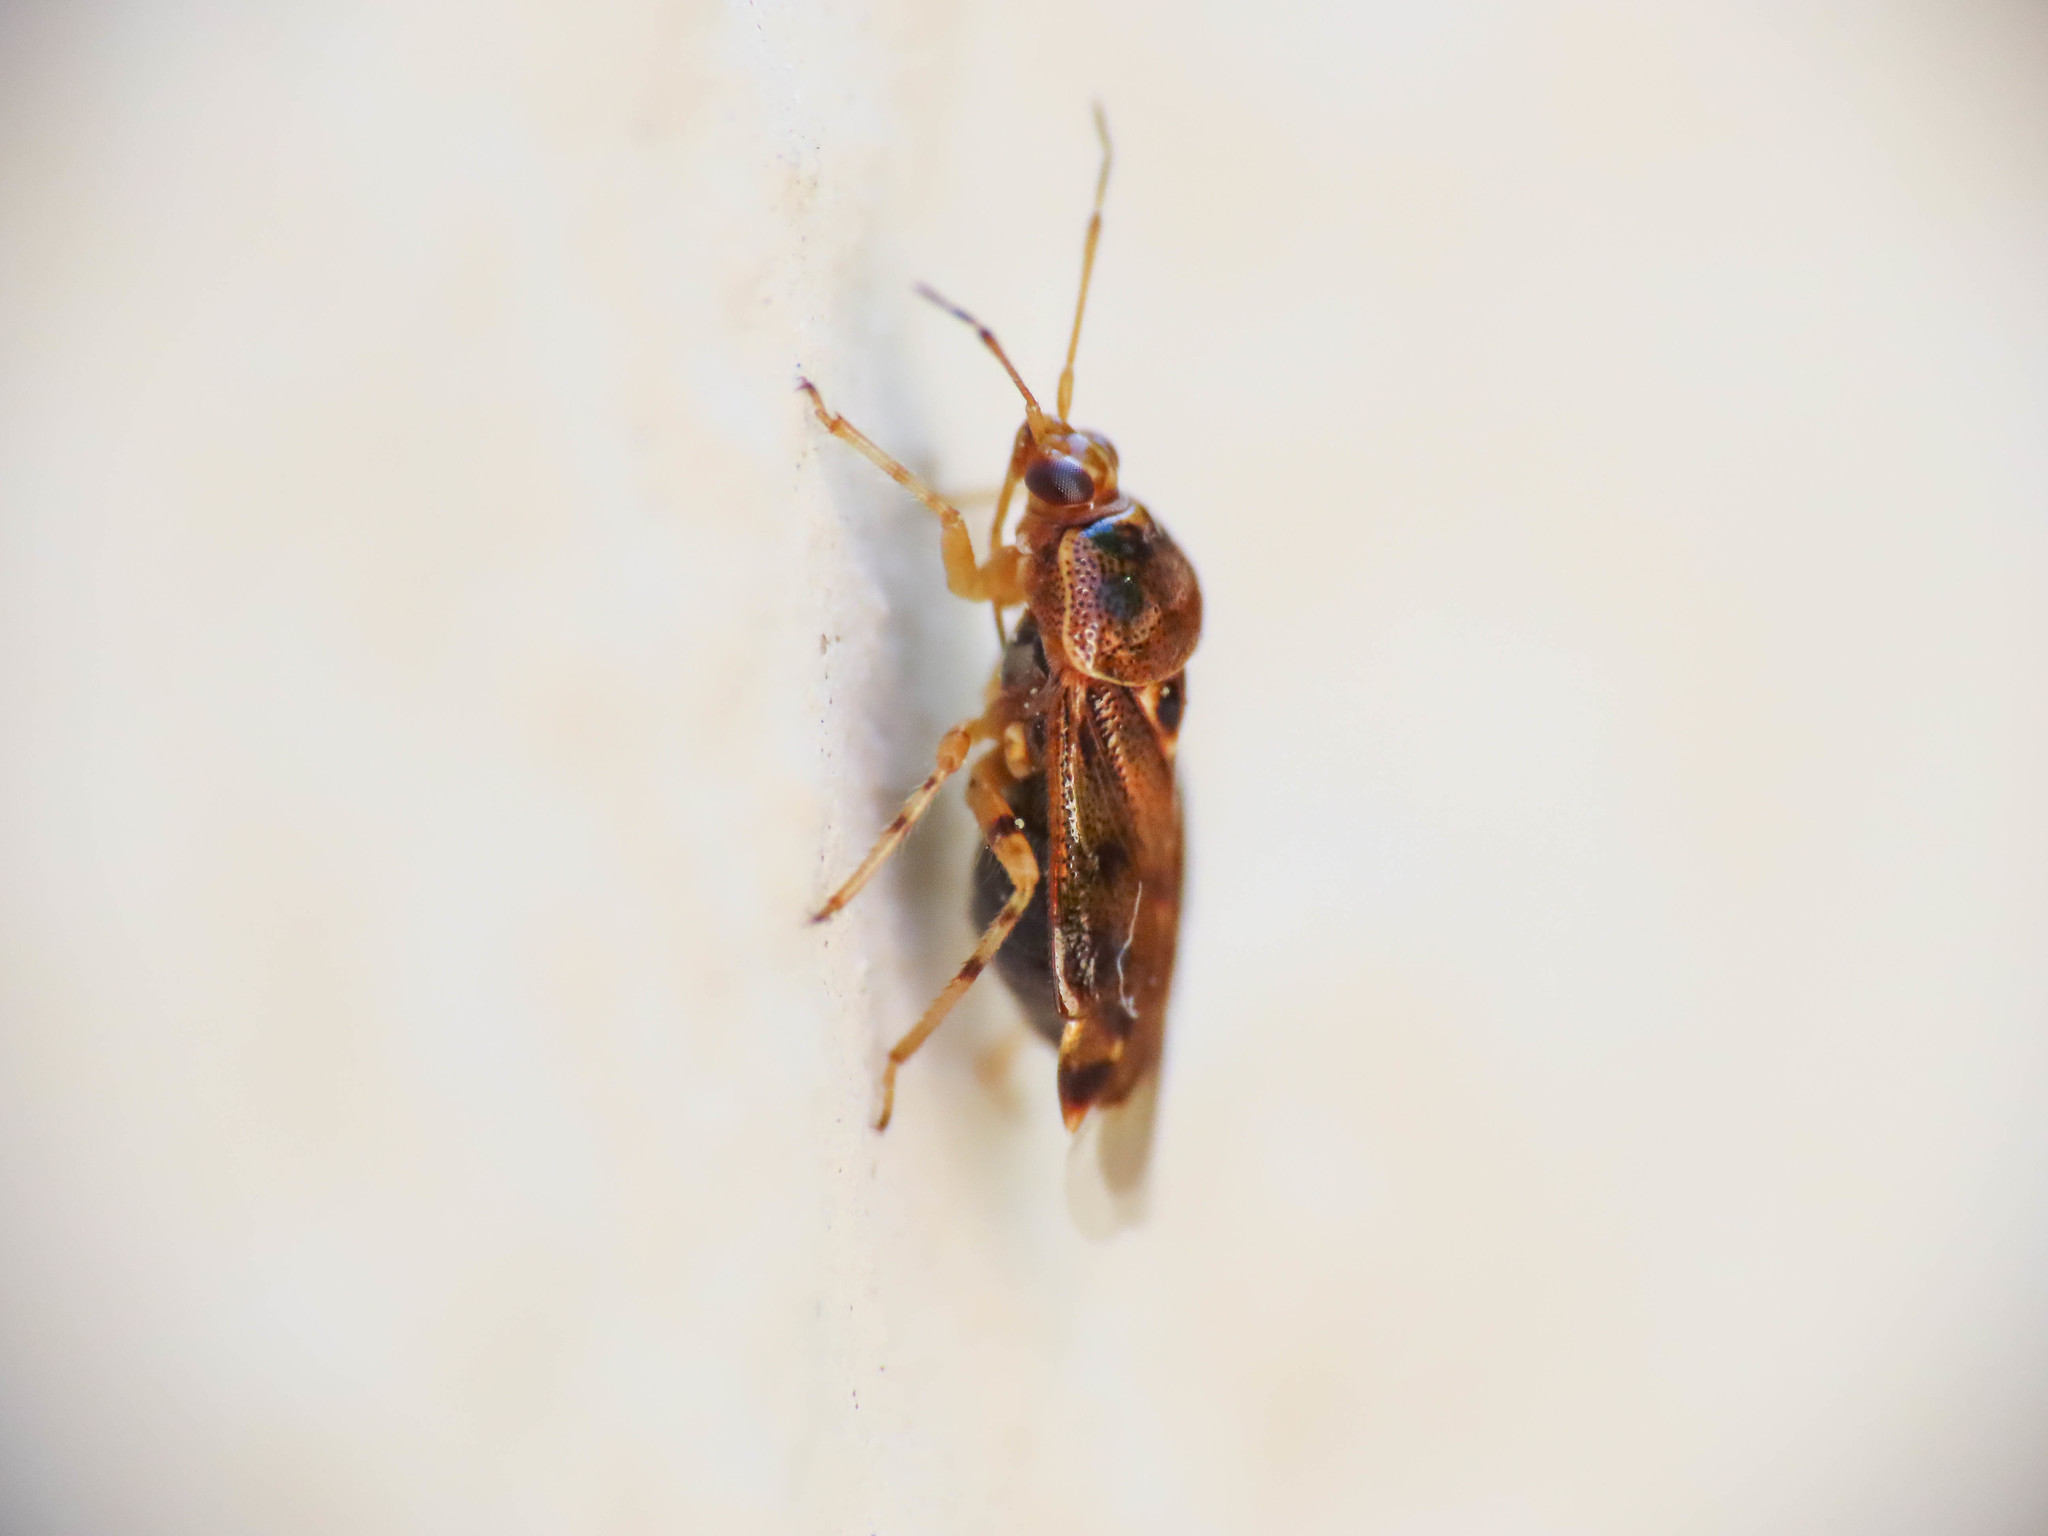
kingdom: Animalia
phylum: Arthropoda
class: Insecta
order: Hemiptera
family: Miridae
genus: Deraeocoris
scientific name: Deraeocoris lutescens
